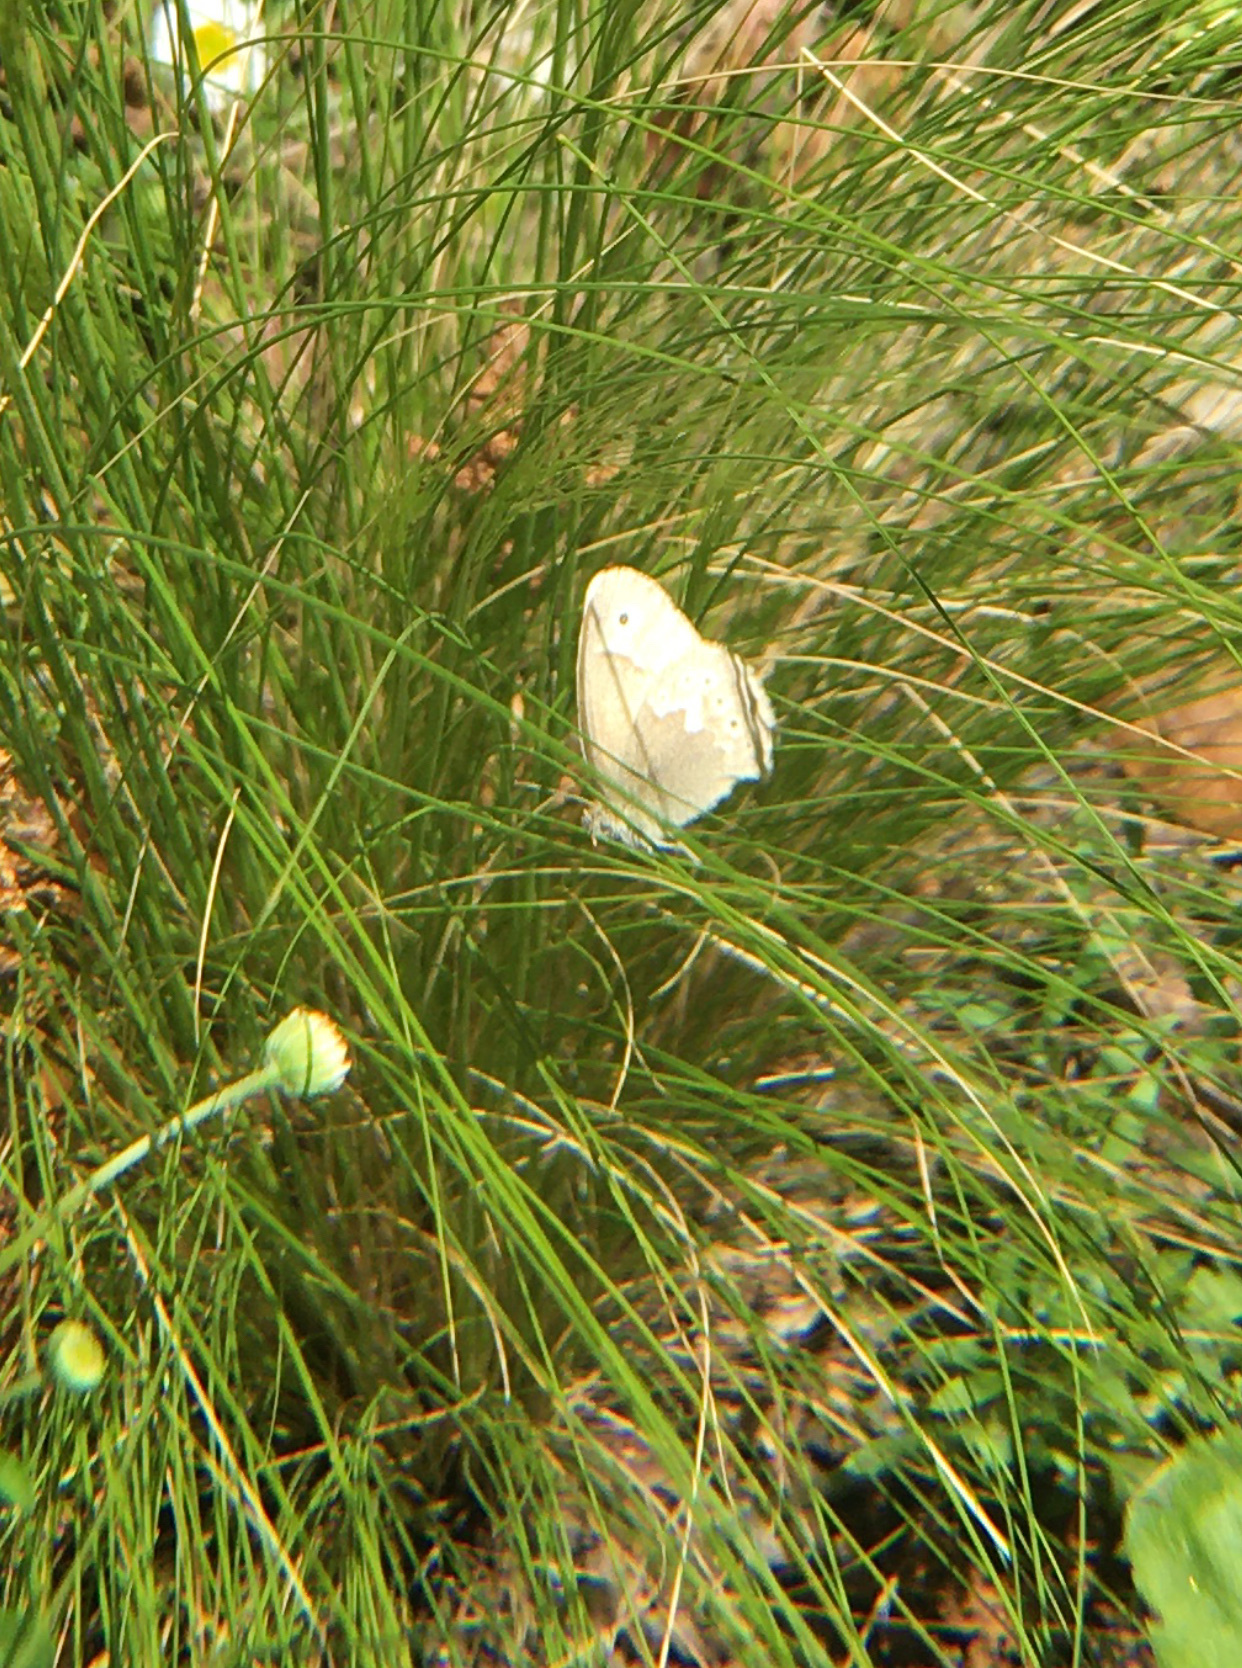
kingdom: Animalia
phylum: Arthropoda
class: Insecta
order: Lepidoptera
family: Nymphalidae
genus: Coenonympha
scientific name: Coenonympha california
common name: Common ringlet
